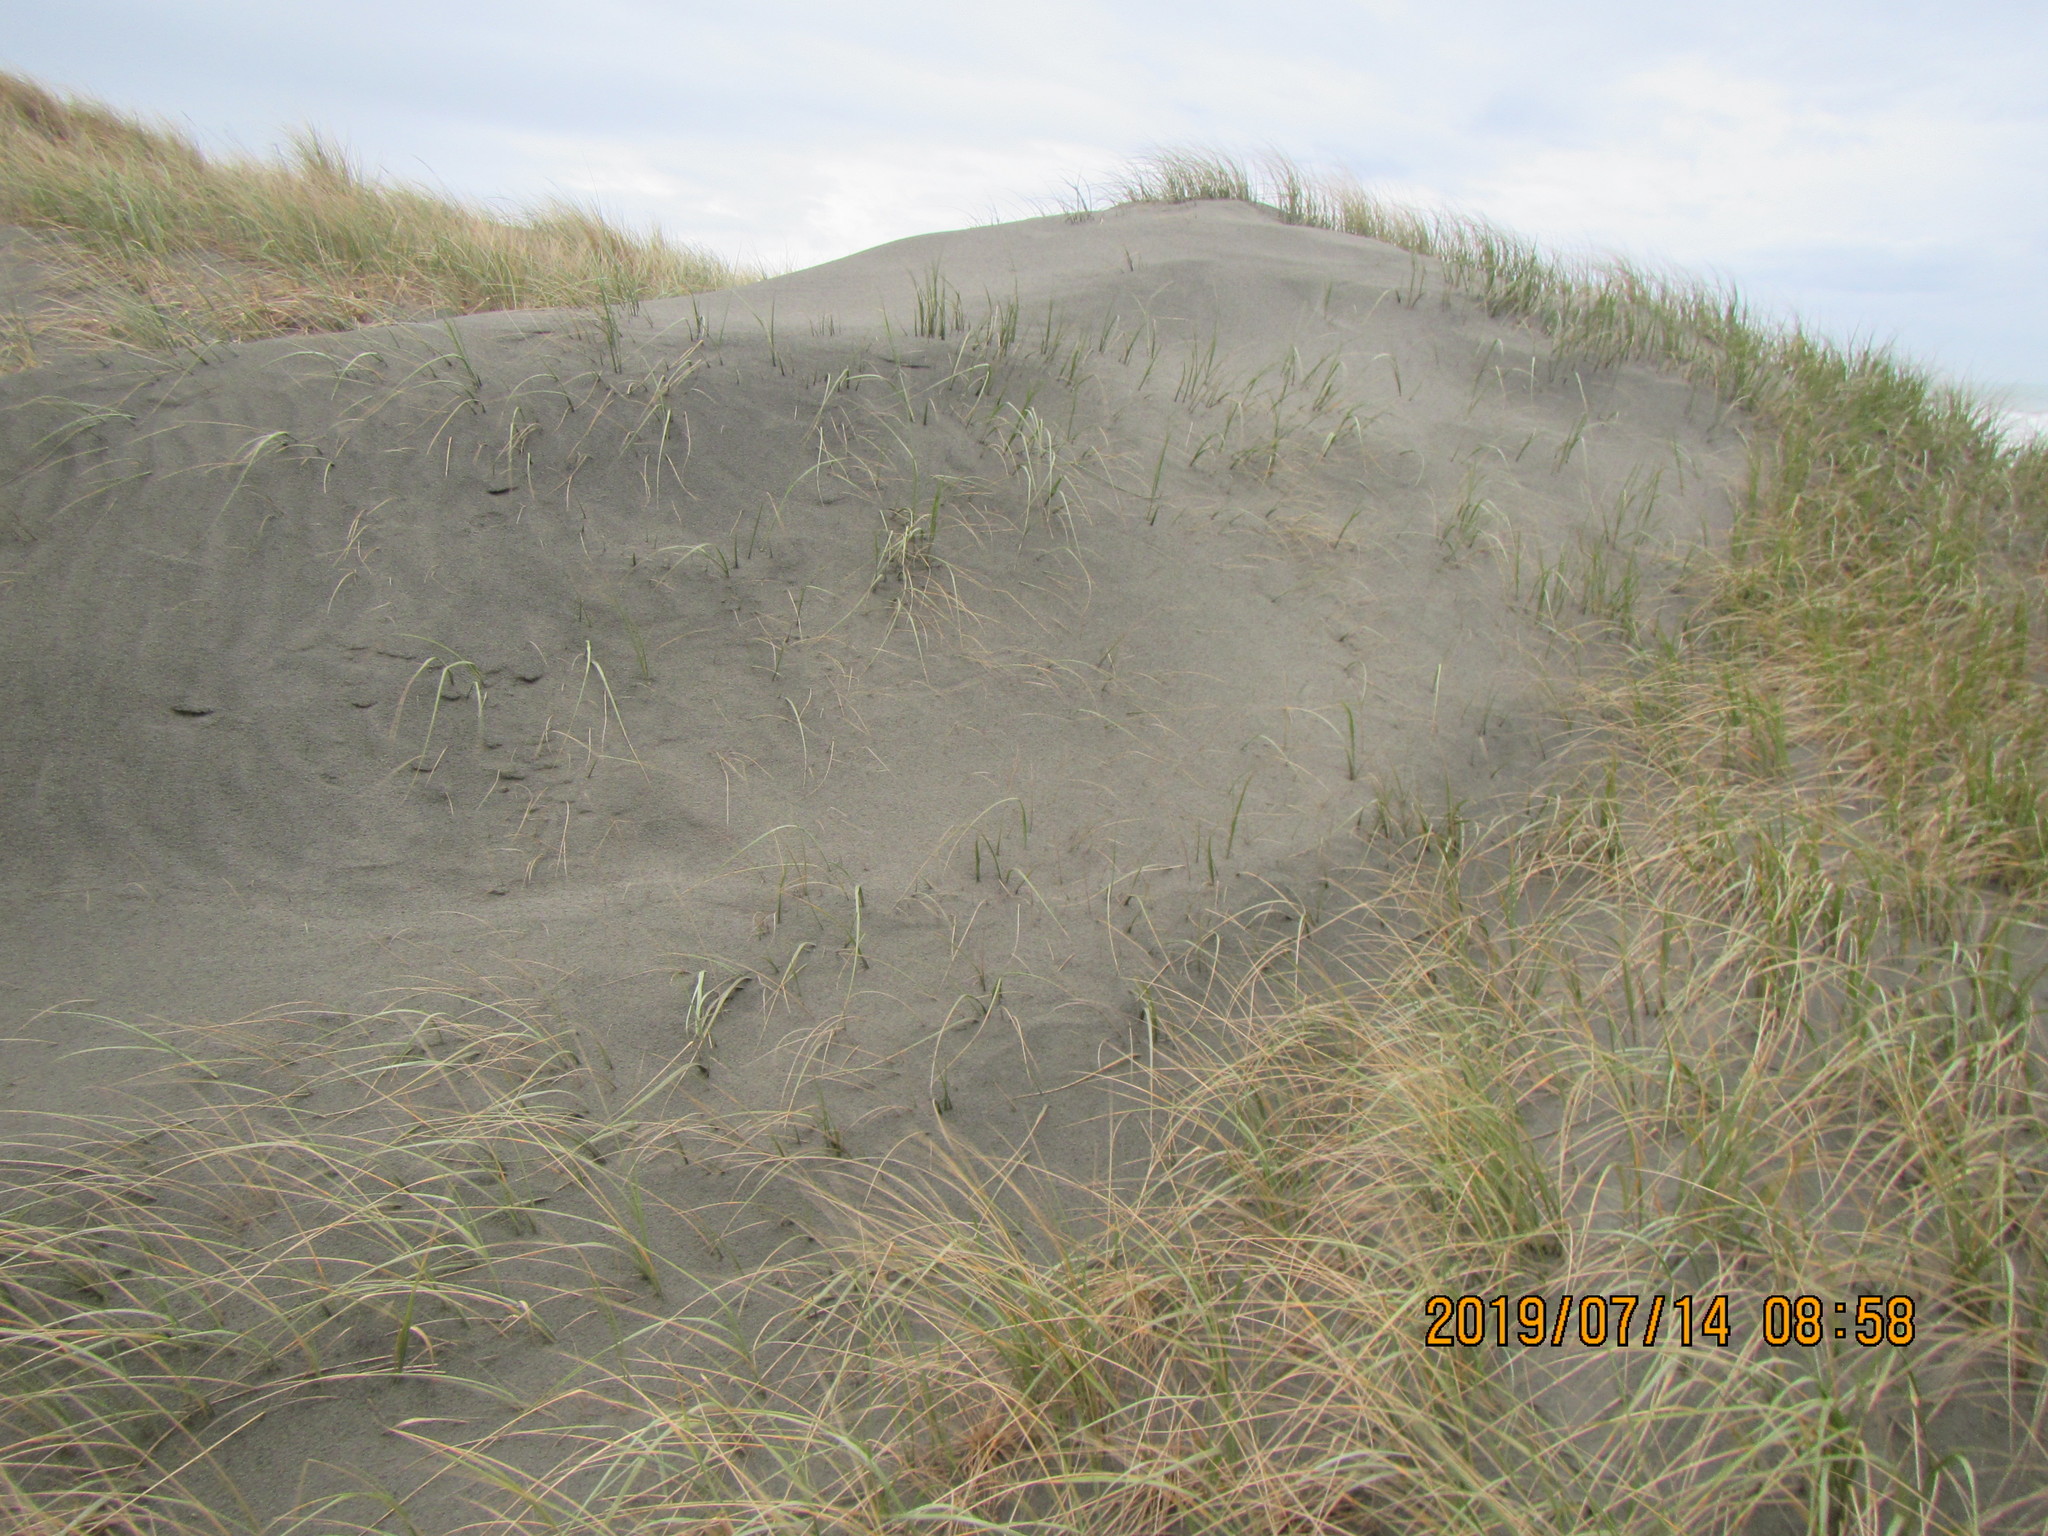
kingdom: Plantae
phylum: Tracheophyta
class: Liliopsida
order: Poales
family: Poaceae
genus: Spinifex
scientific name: Spinifex sericeus
